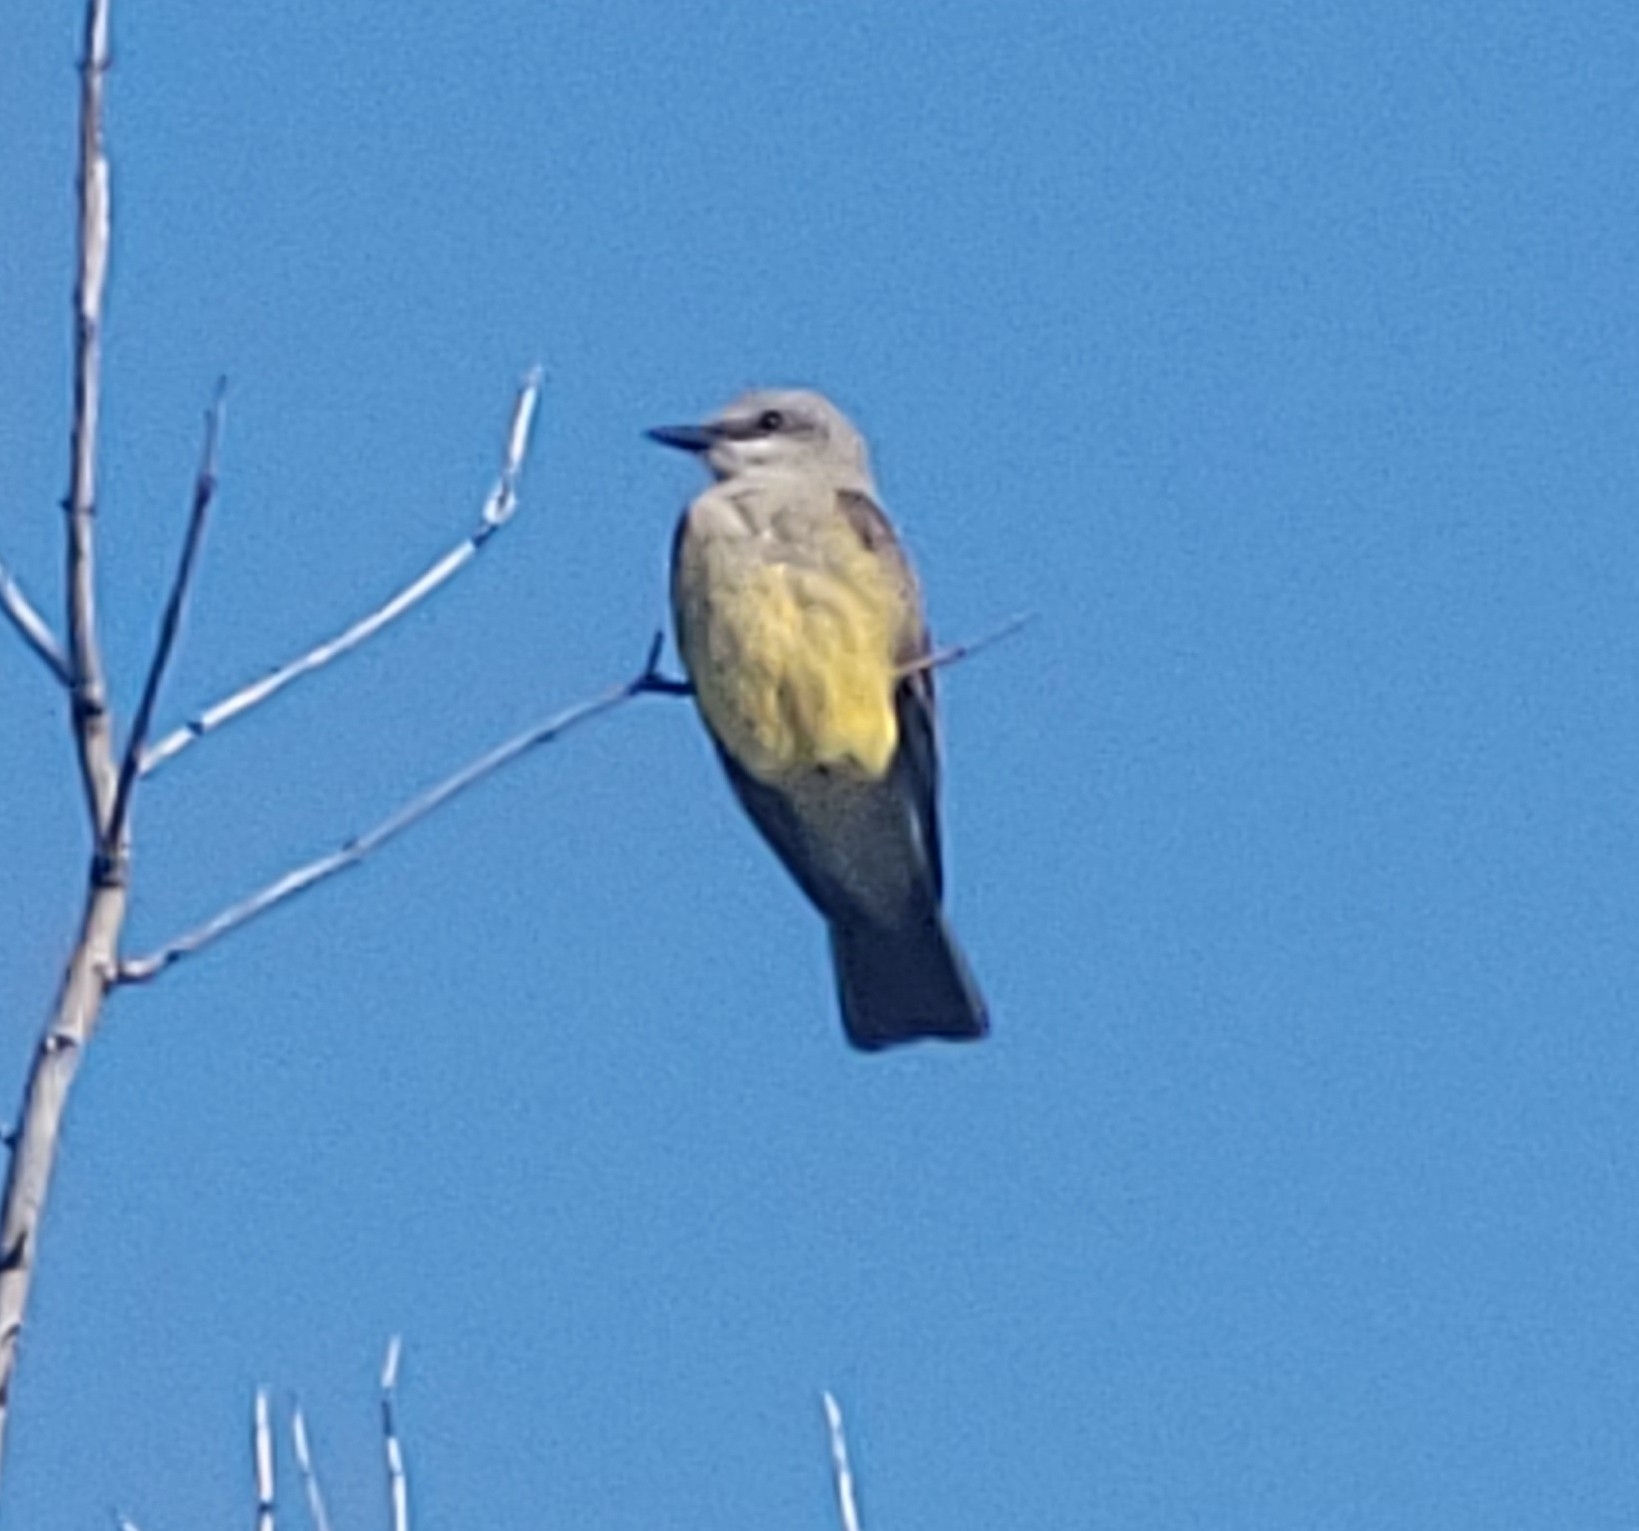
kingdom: Animalia
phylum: Chordata
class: Aves
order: Passeriformes
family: Tyrannidae
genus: Tyrannus
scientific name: Tyrannus verticalis
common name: Western kingbird
